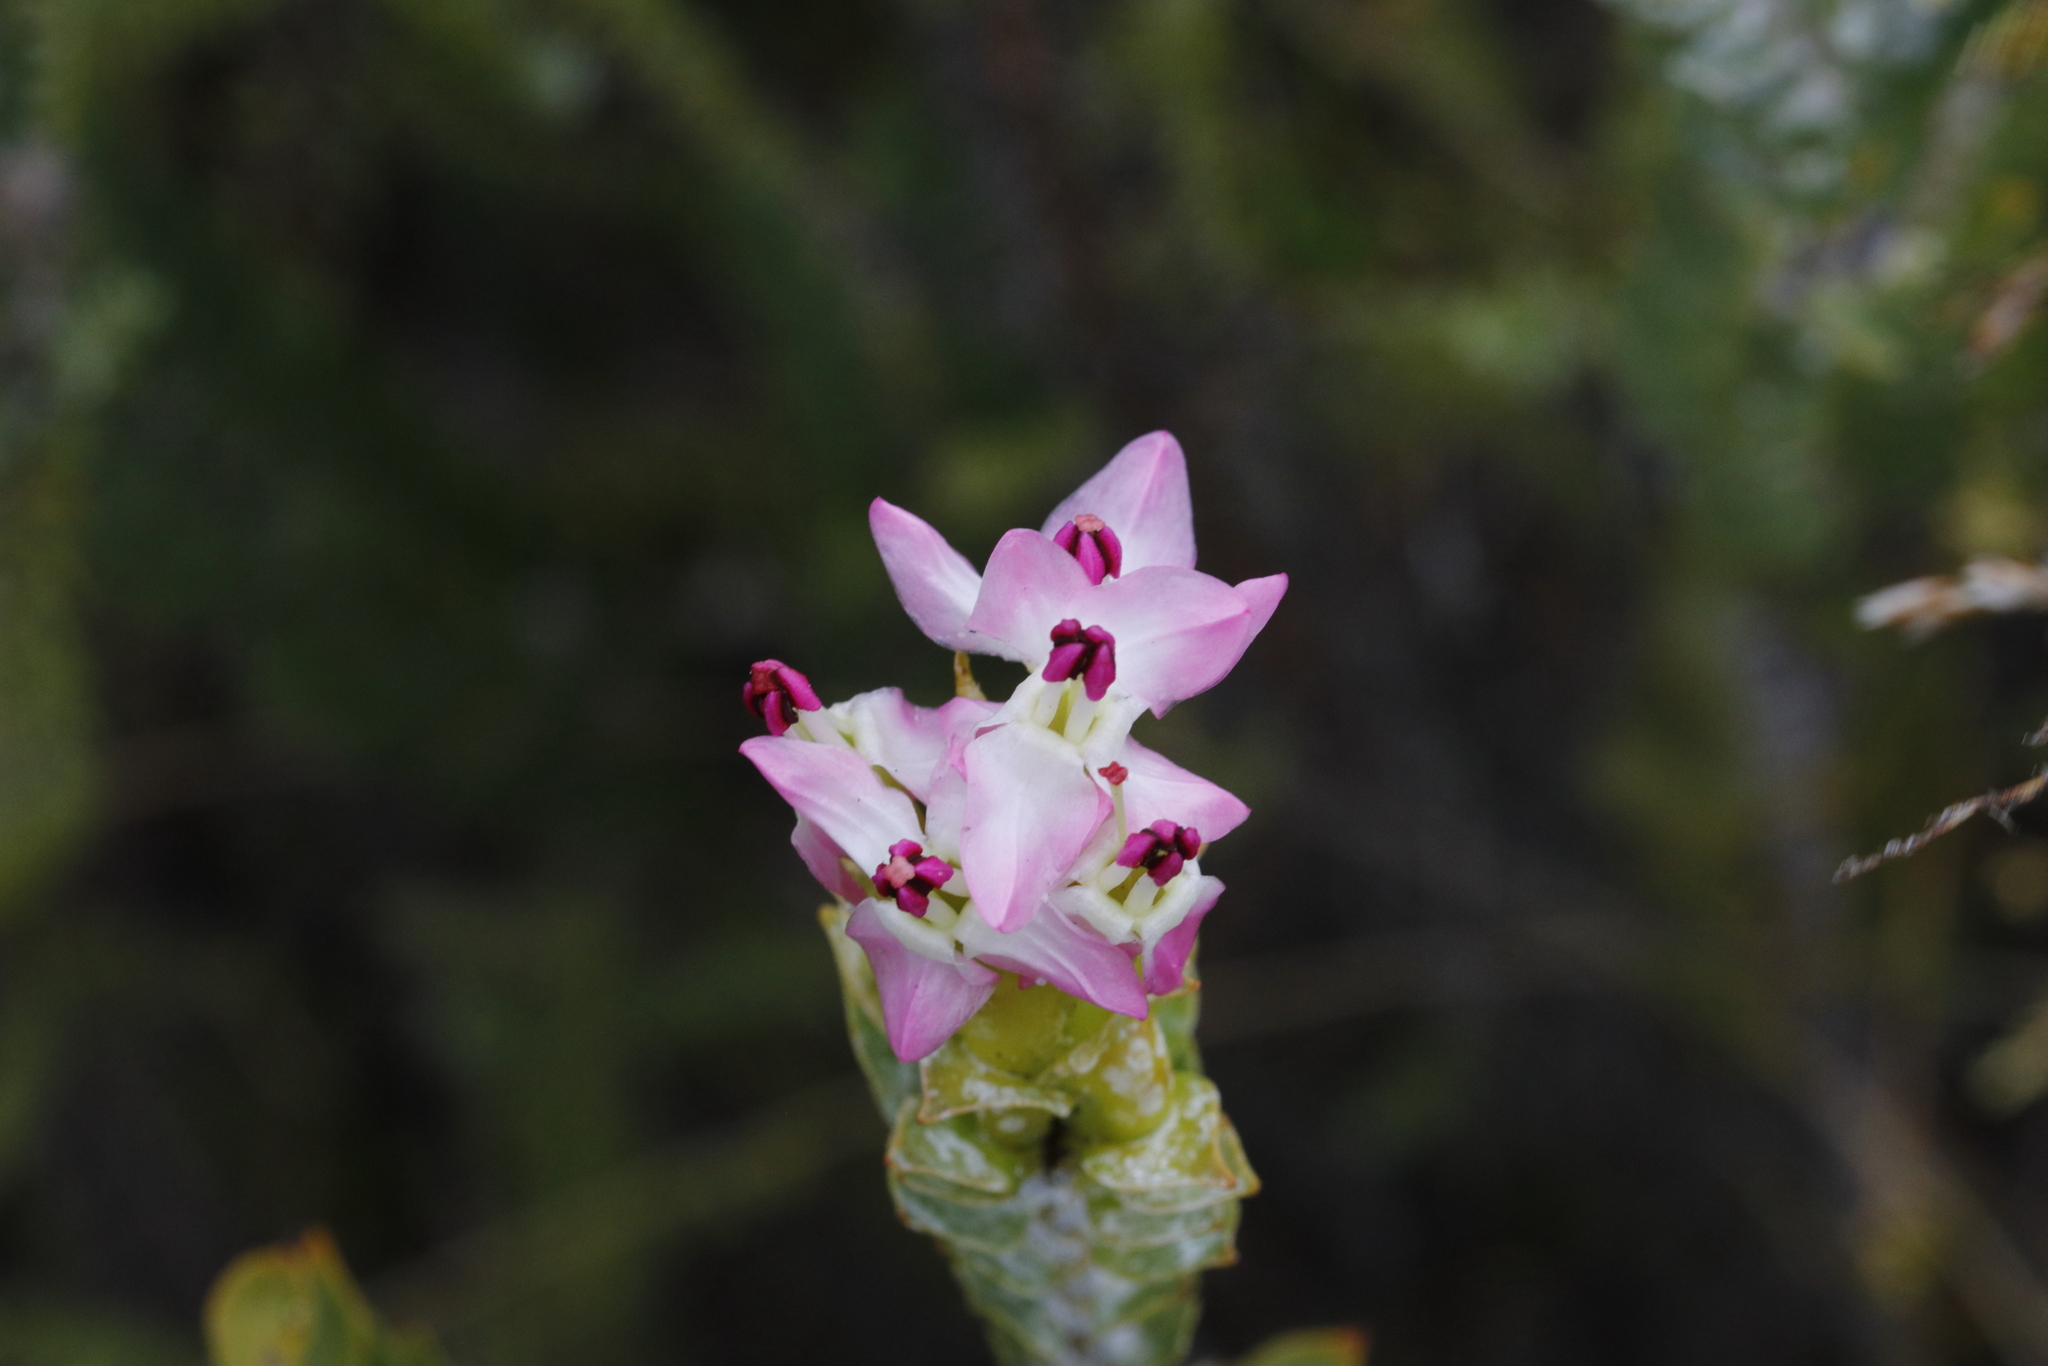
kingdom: Plantae
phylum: Tracheophyta
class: Magnoliopsida
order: Myrtales
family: Penaeaceae
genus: Saltera
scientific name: Saltera sarcocolla
